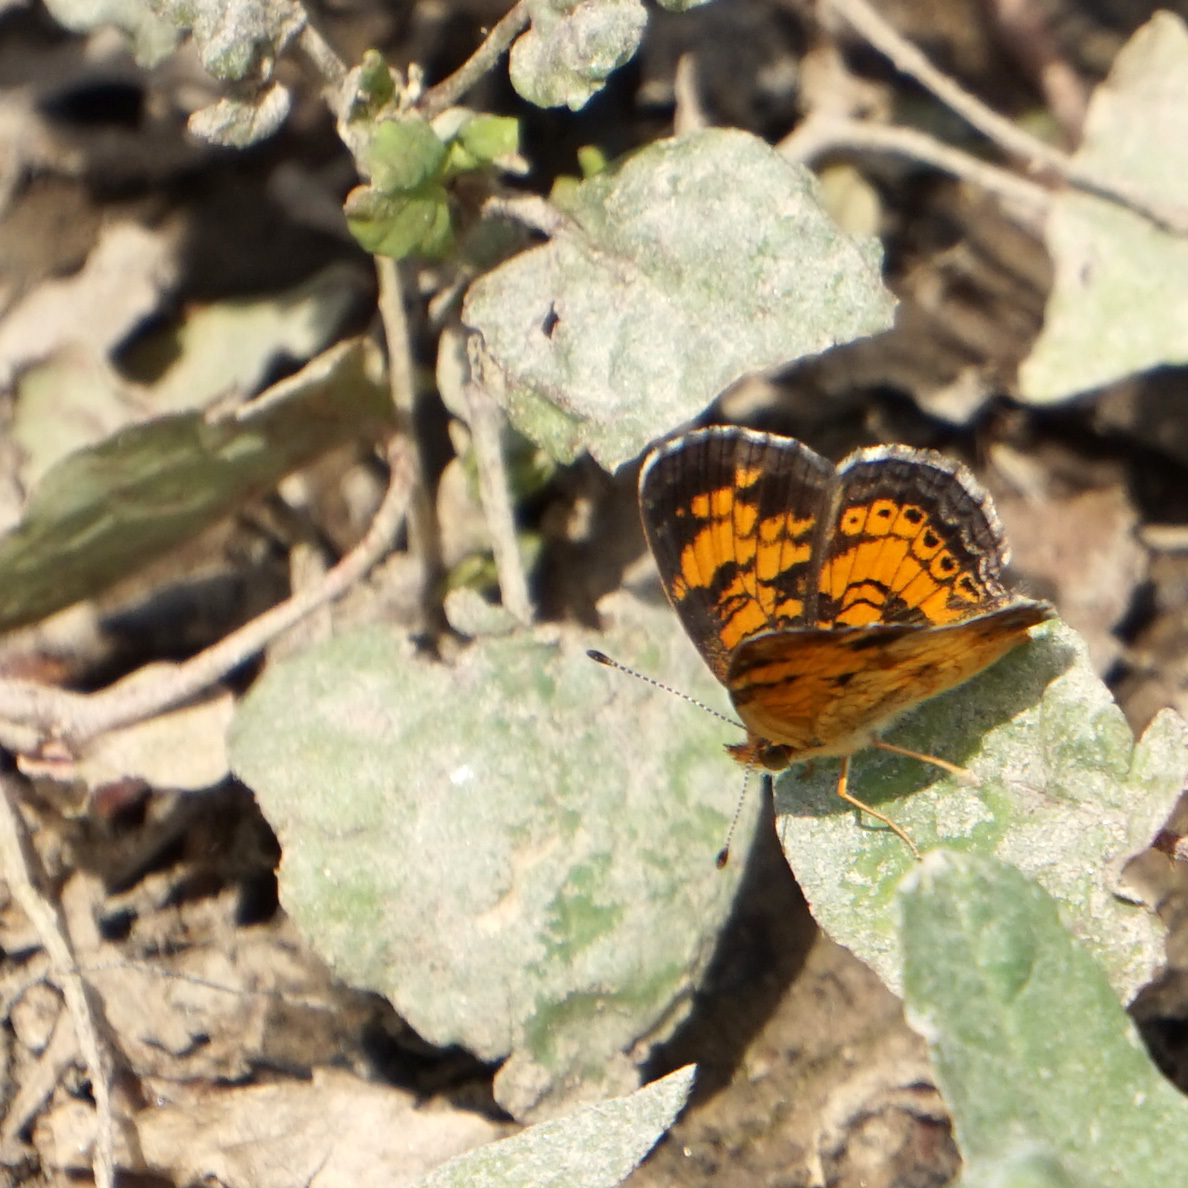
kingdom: Animalia
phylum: Arthropoda
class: Insecta
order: Lepidoptera
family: Nymphalidae
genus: Phyciodes
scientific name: Phyciodes tharos
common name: Pearl crescent
